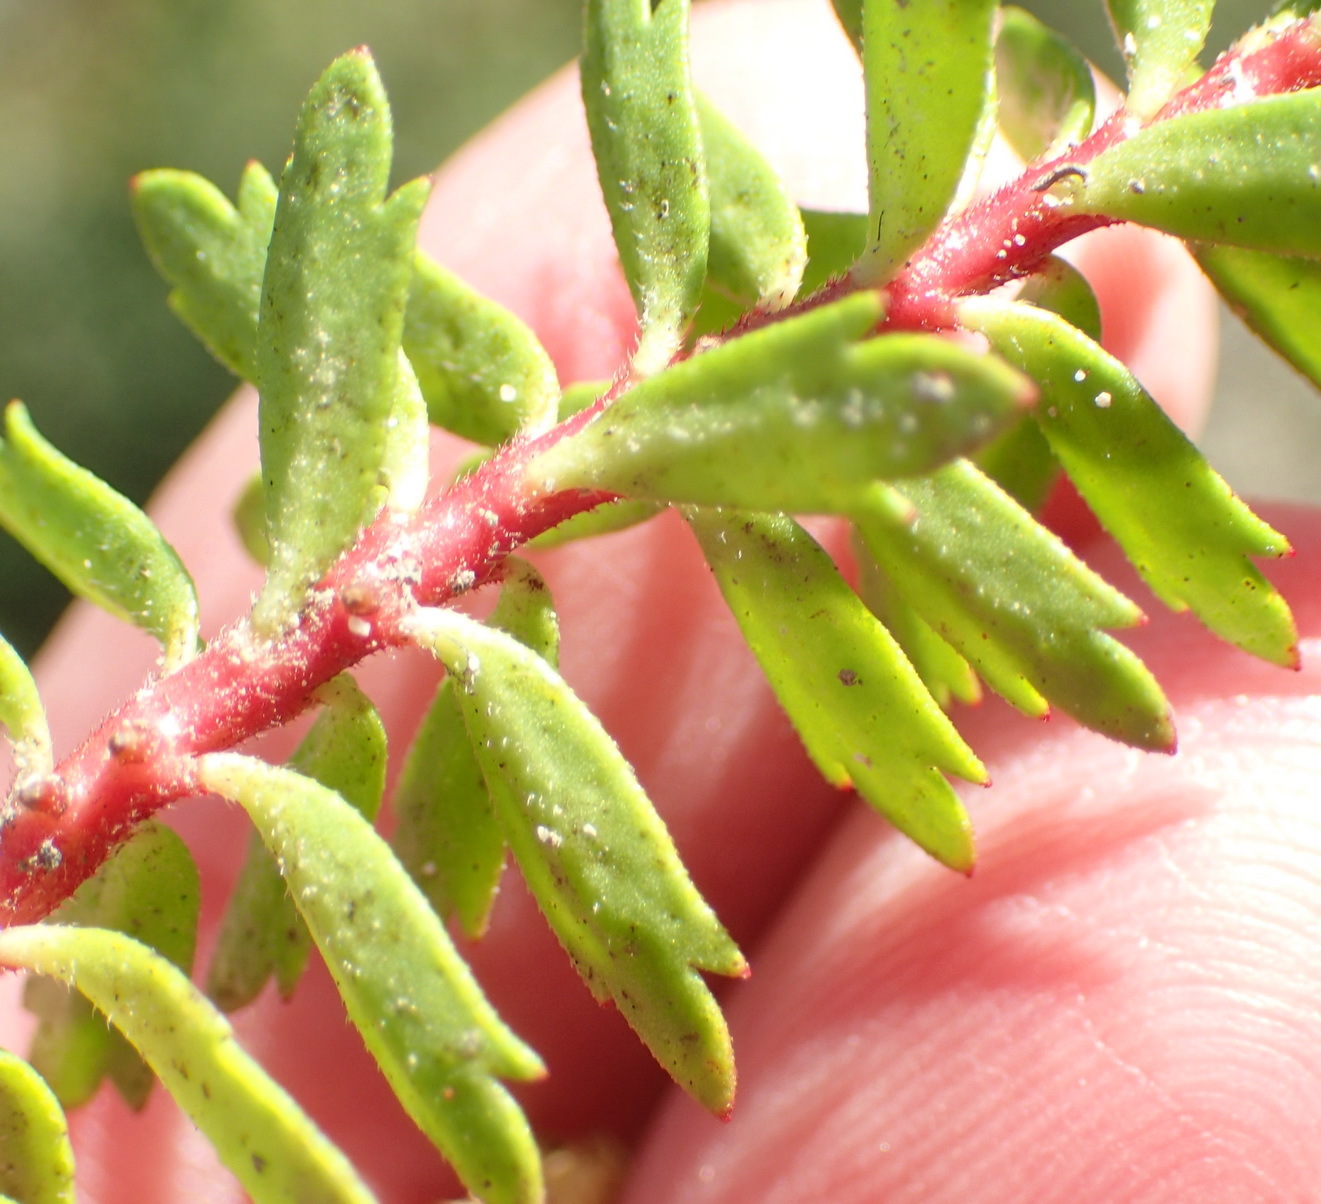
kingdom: Plantae
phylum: Tracheophyta
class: Magnoliopsida
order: Saxifragales
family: Haloragaceae
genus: Laurembergia
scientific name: Laurembergia repens
